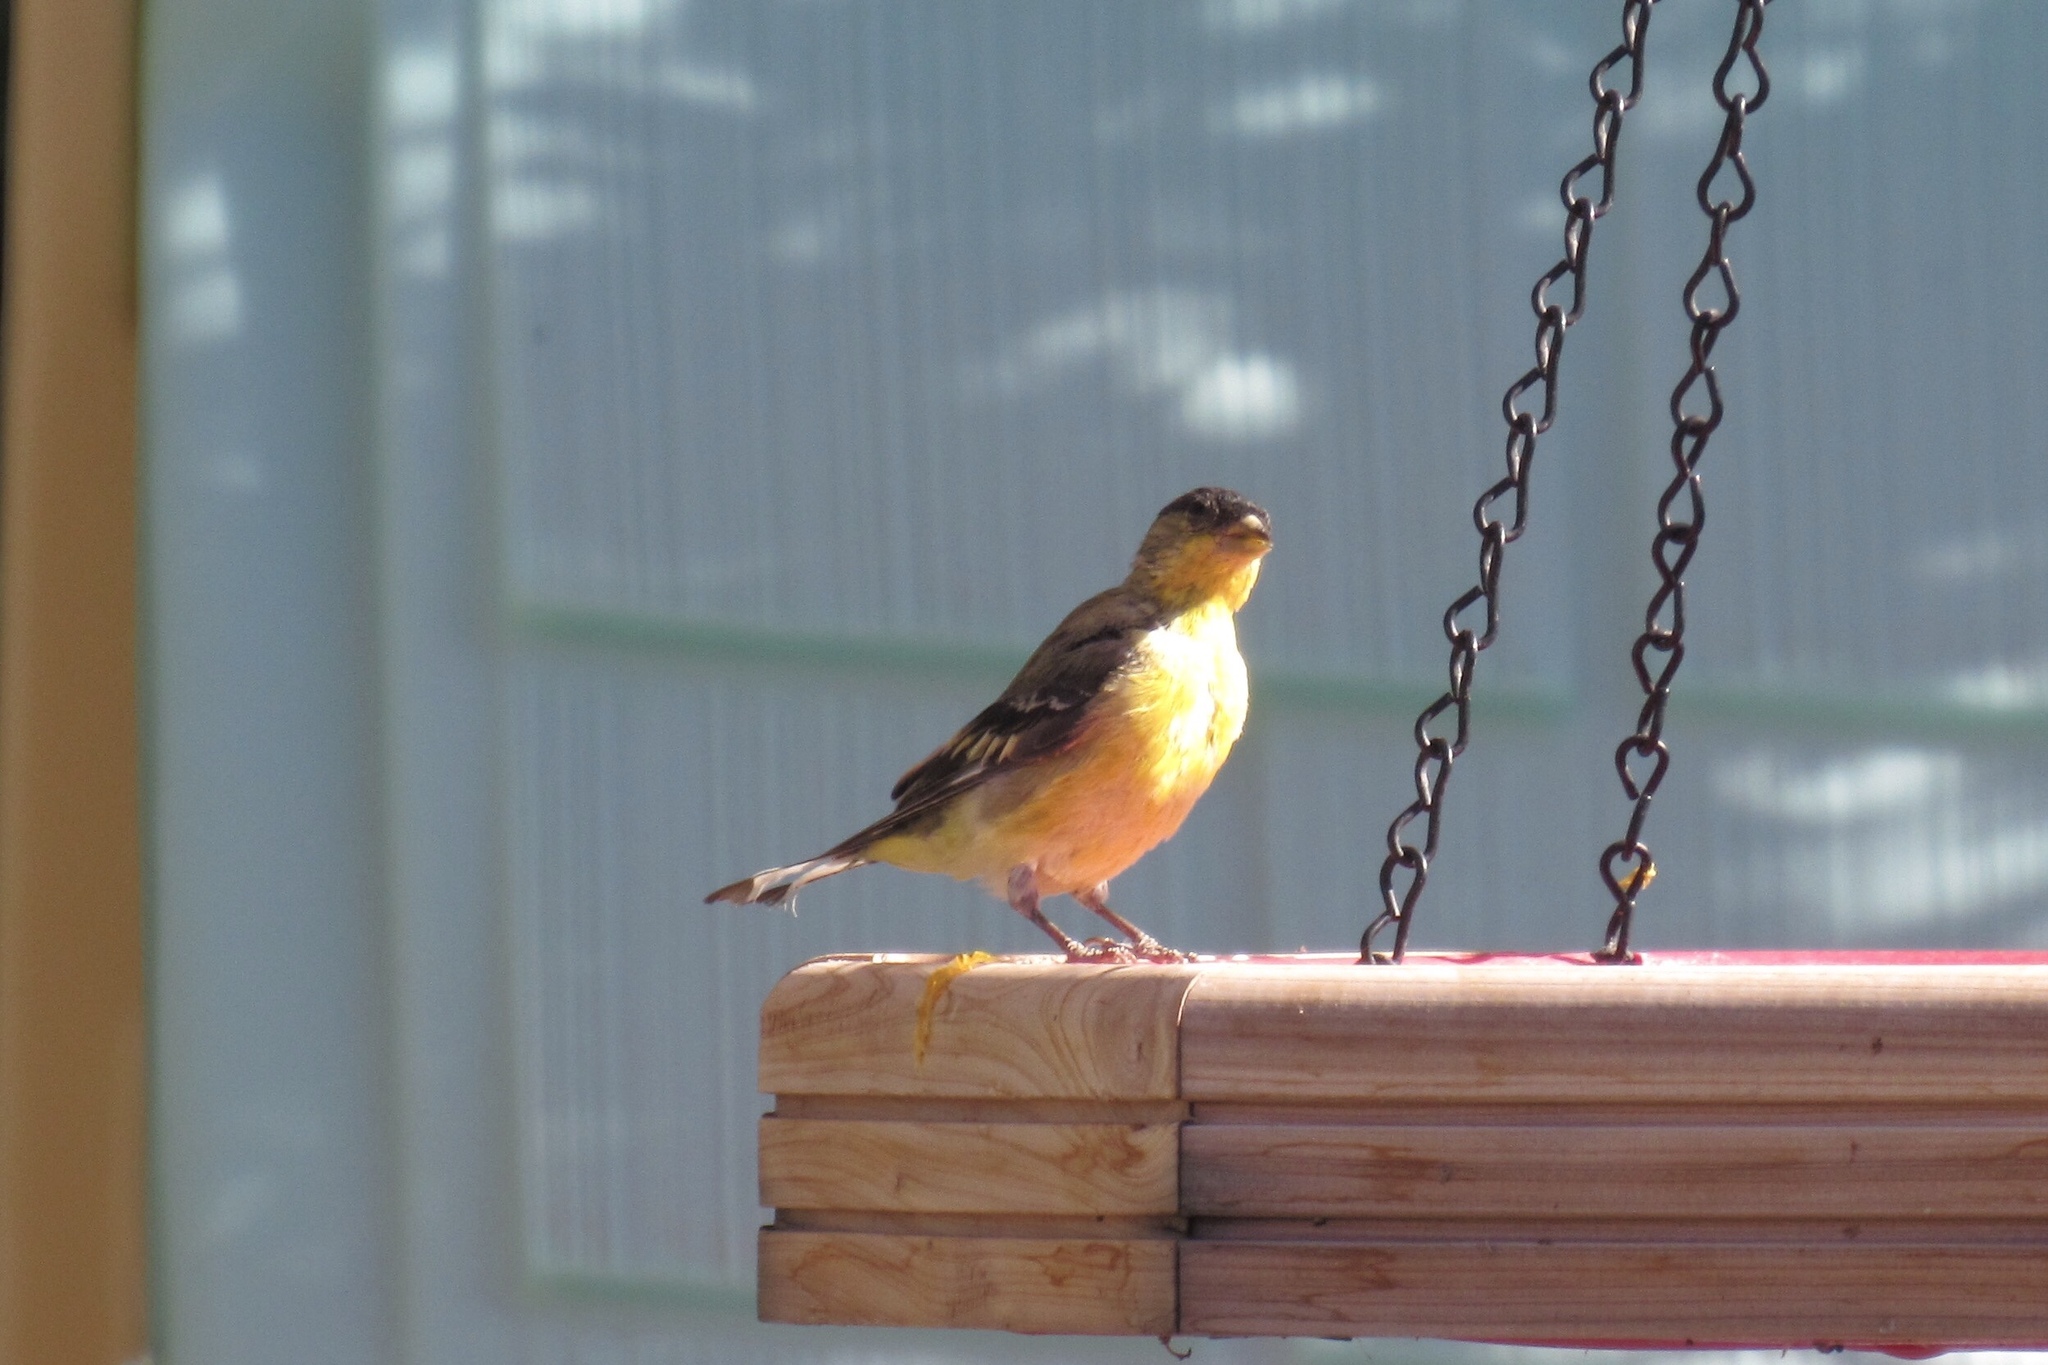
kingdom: Animalia
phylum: Chordata
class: Aves
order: Passeriformes
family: Fringillidae
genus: Spinus
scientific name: Spinus psaltria
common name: Lesser goldfinch
